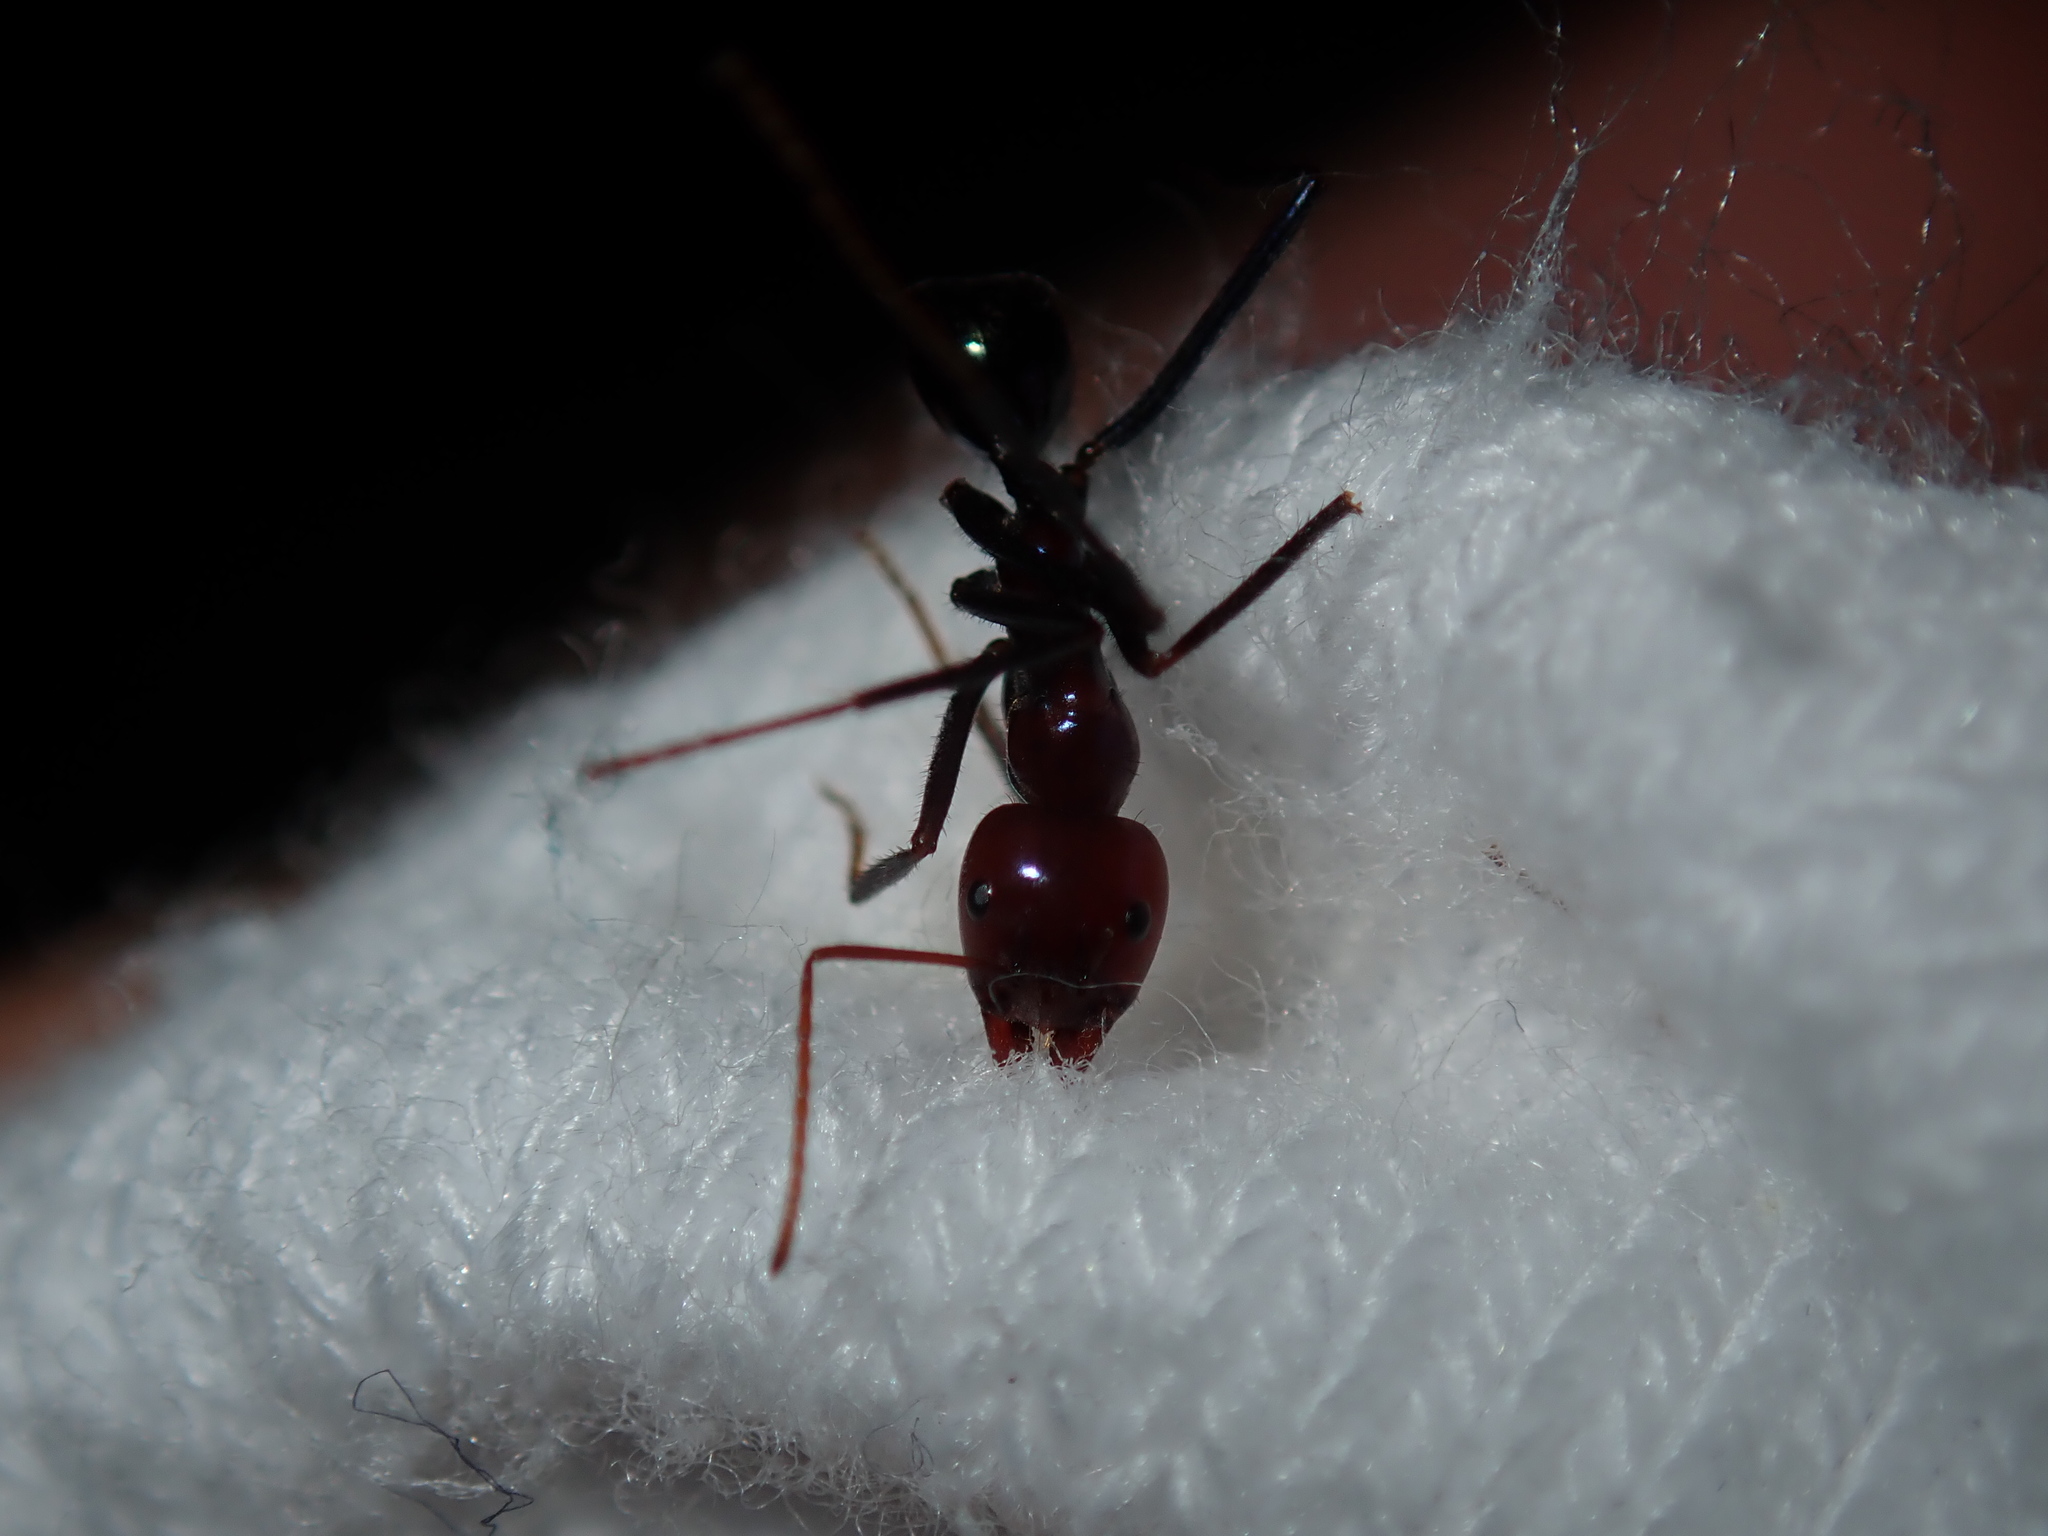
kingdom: Animalia
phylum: Arthropoda
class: Insecta
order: Hymenoptera
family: Formicidae
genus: Iridomyrmex
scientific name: Iridomyrmex purpureus
